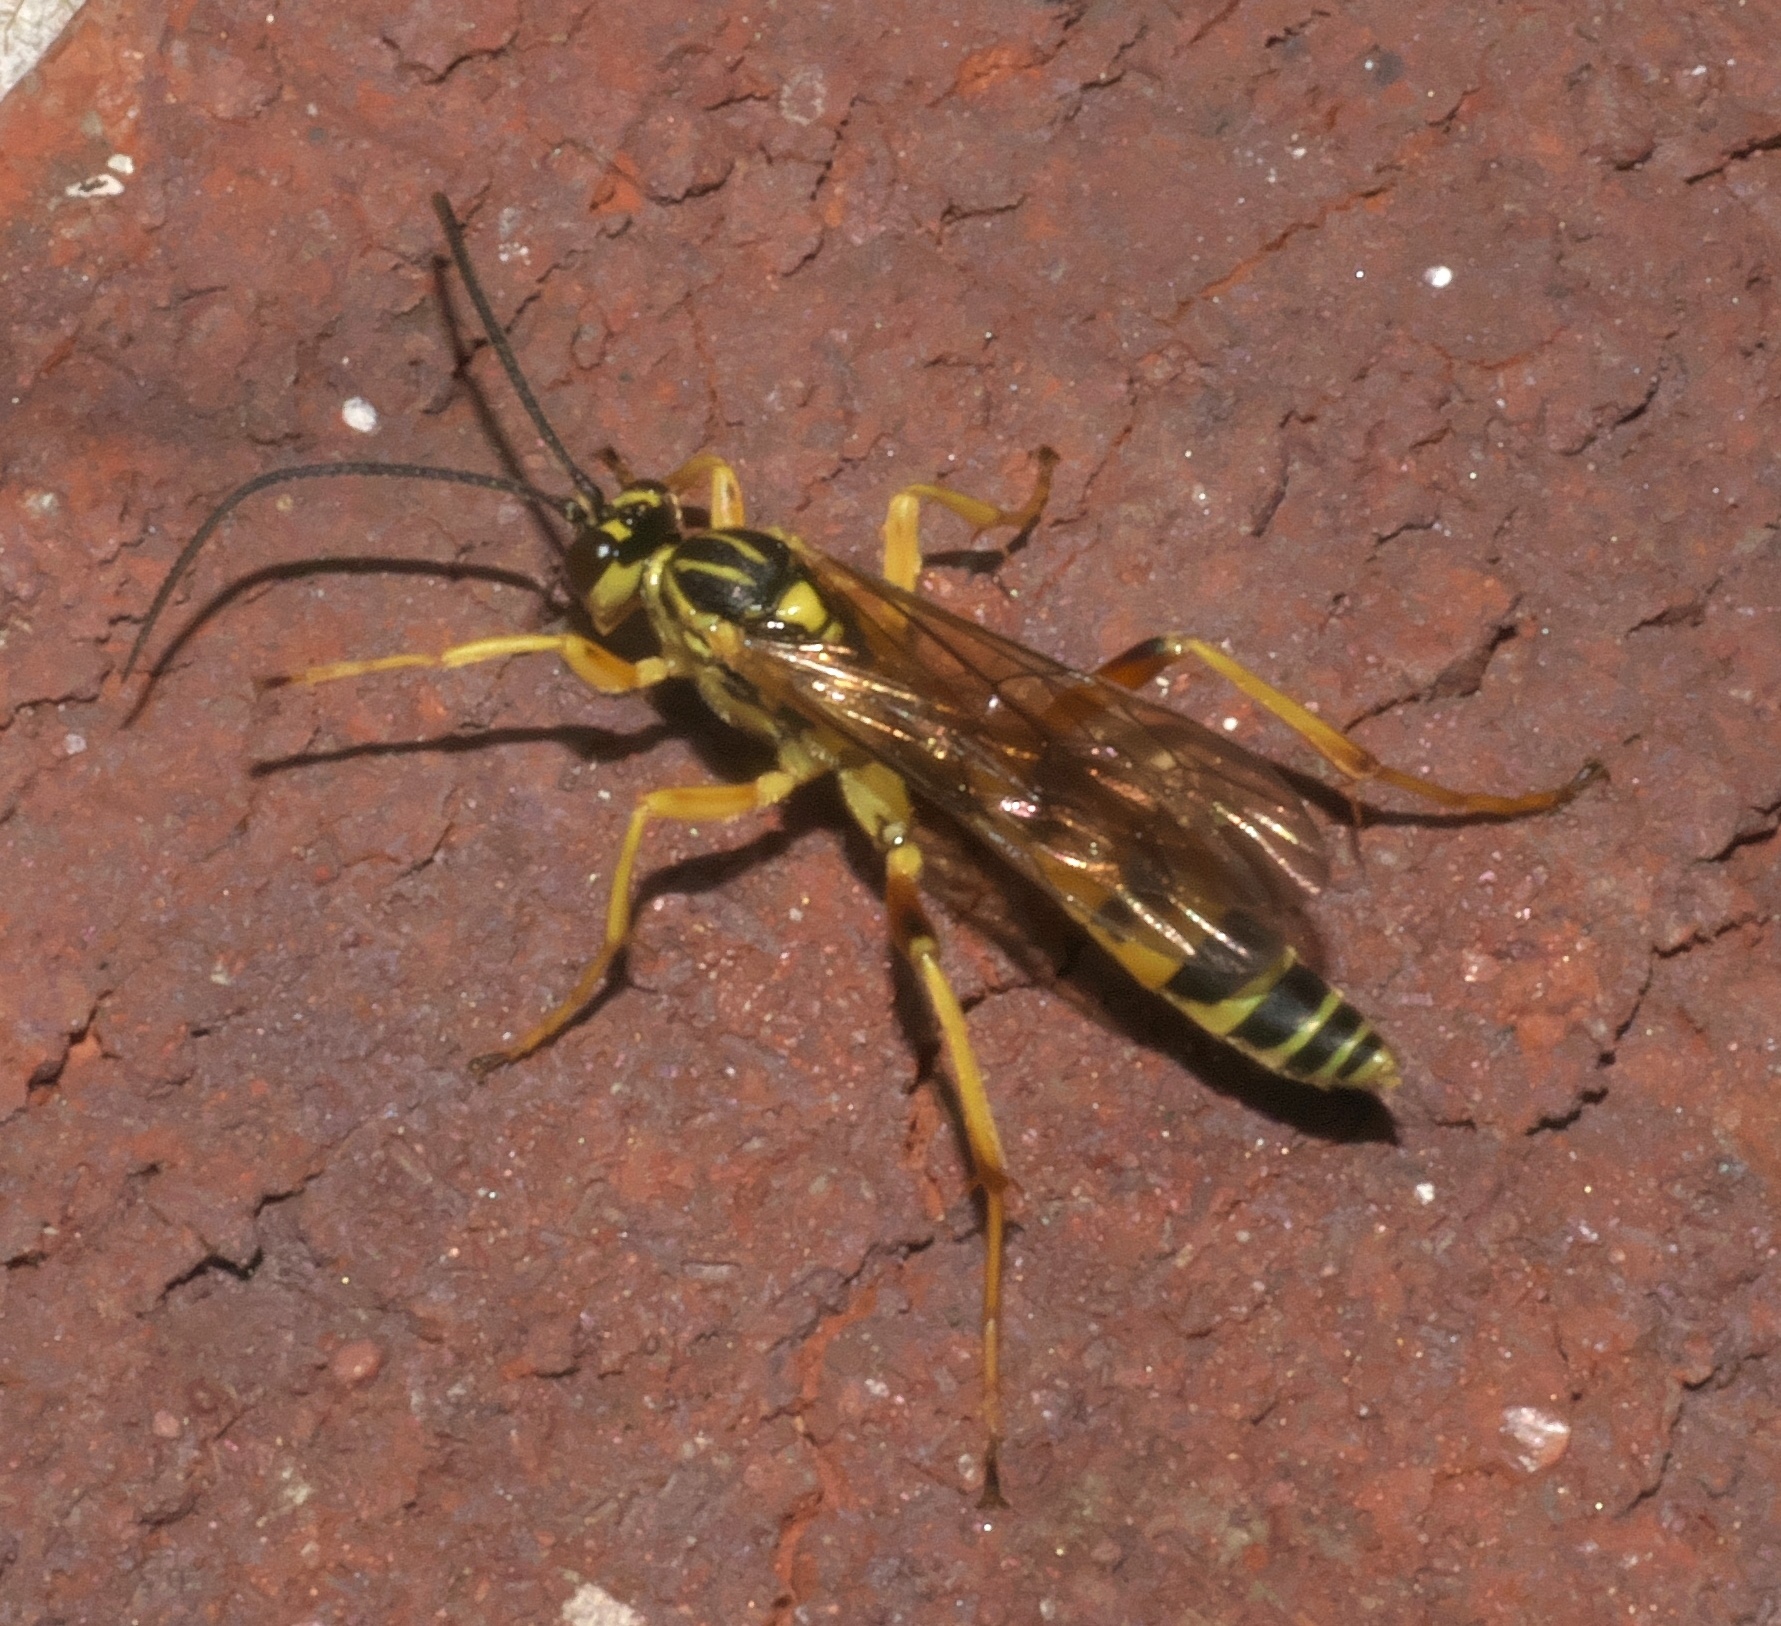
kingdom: Animalia
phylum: Arthropoda
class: Insecta
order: Hymenoptera
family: Ichneumonidae
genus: Setanta
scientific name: Setanta compta
